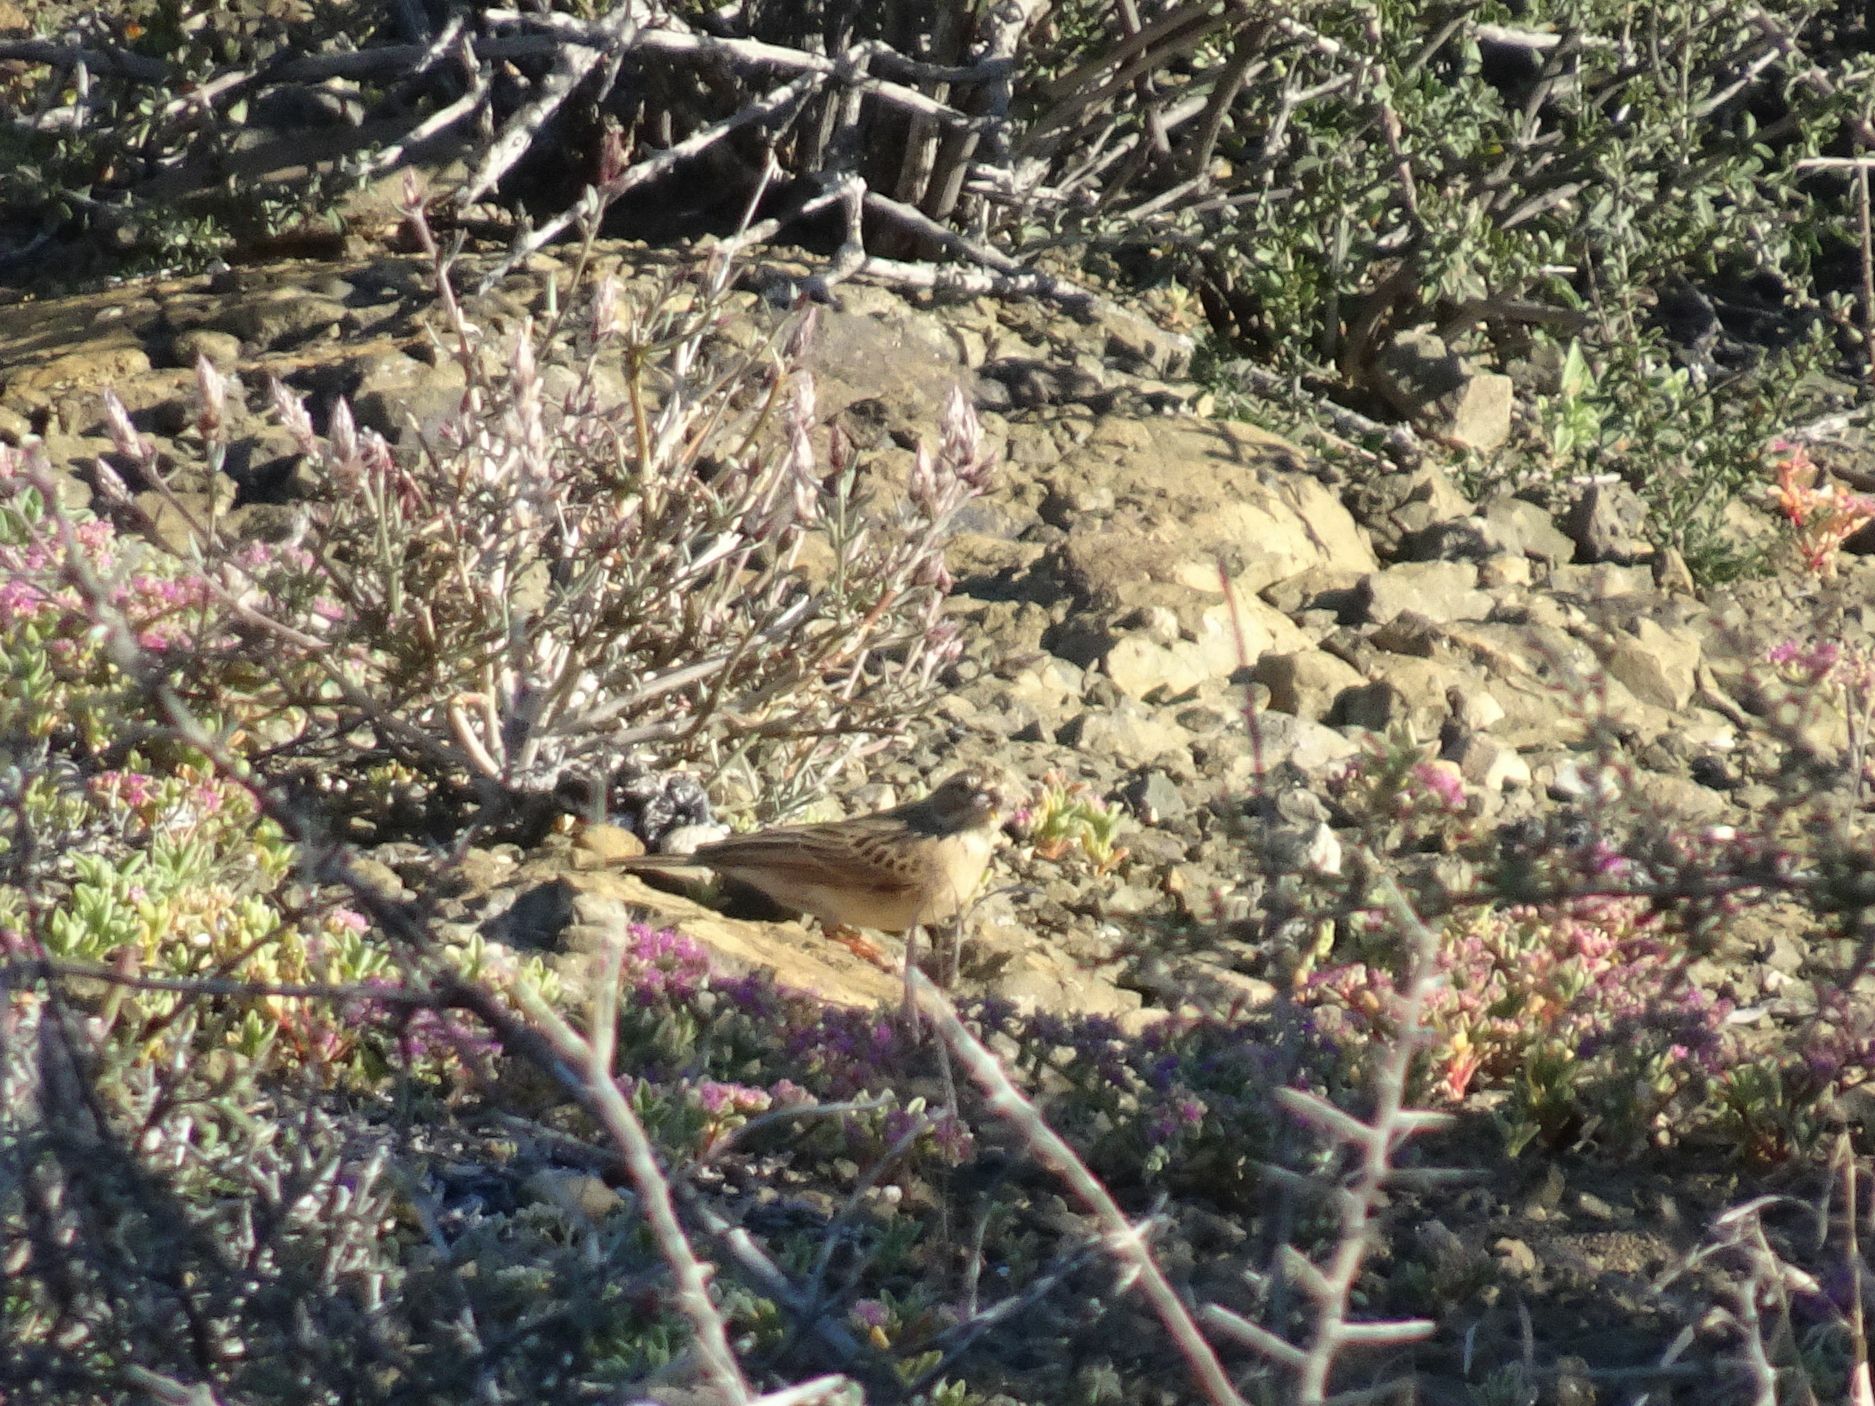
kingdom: Animalia
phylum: Chordata
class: Aves
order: Passeriformes
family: Emberizidae
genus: Emberiza
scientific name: Emberiza impetuani
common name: Lark-like bunting
